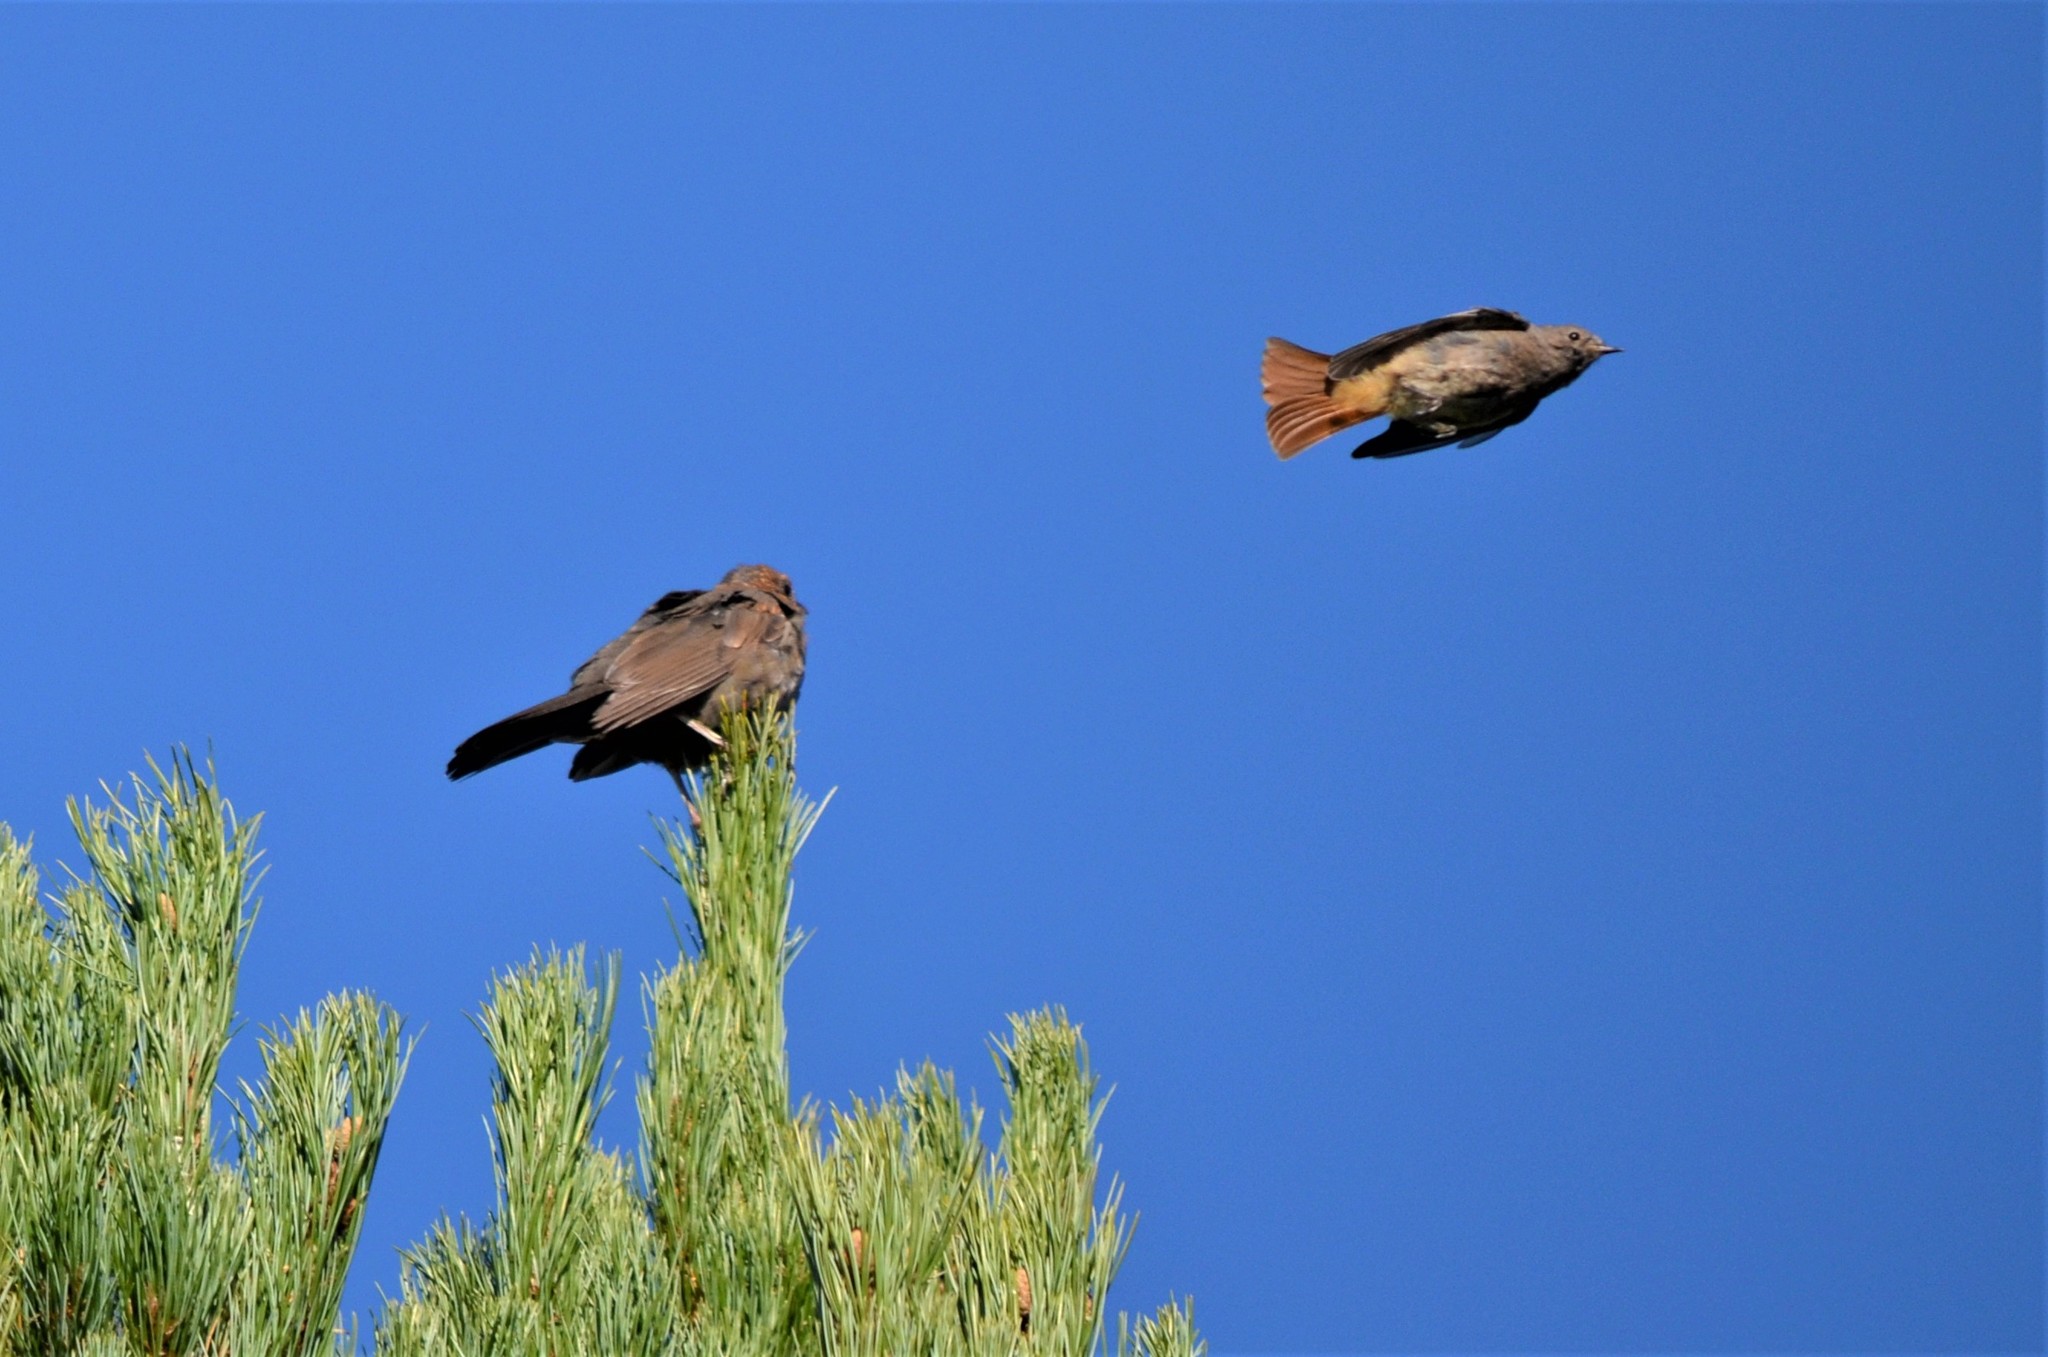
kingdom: Animalia
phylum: Chordata
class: Aves
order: Passeriformes
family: Turdidae
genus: Turdus
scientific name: Turdus merula
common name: Common blackbird
